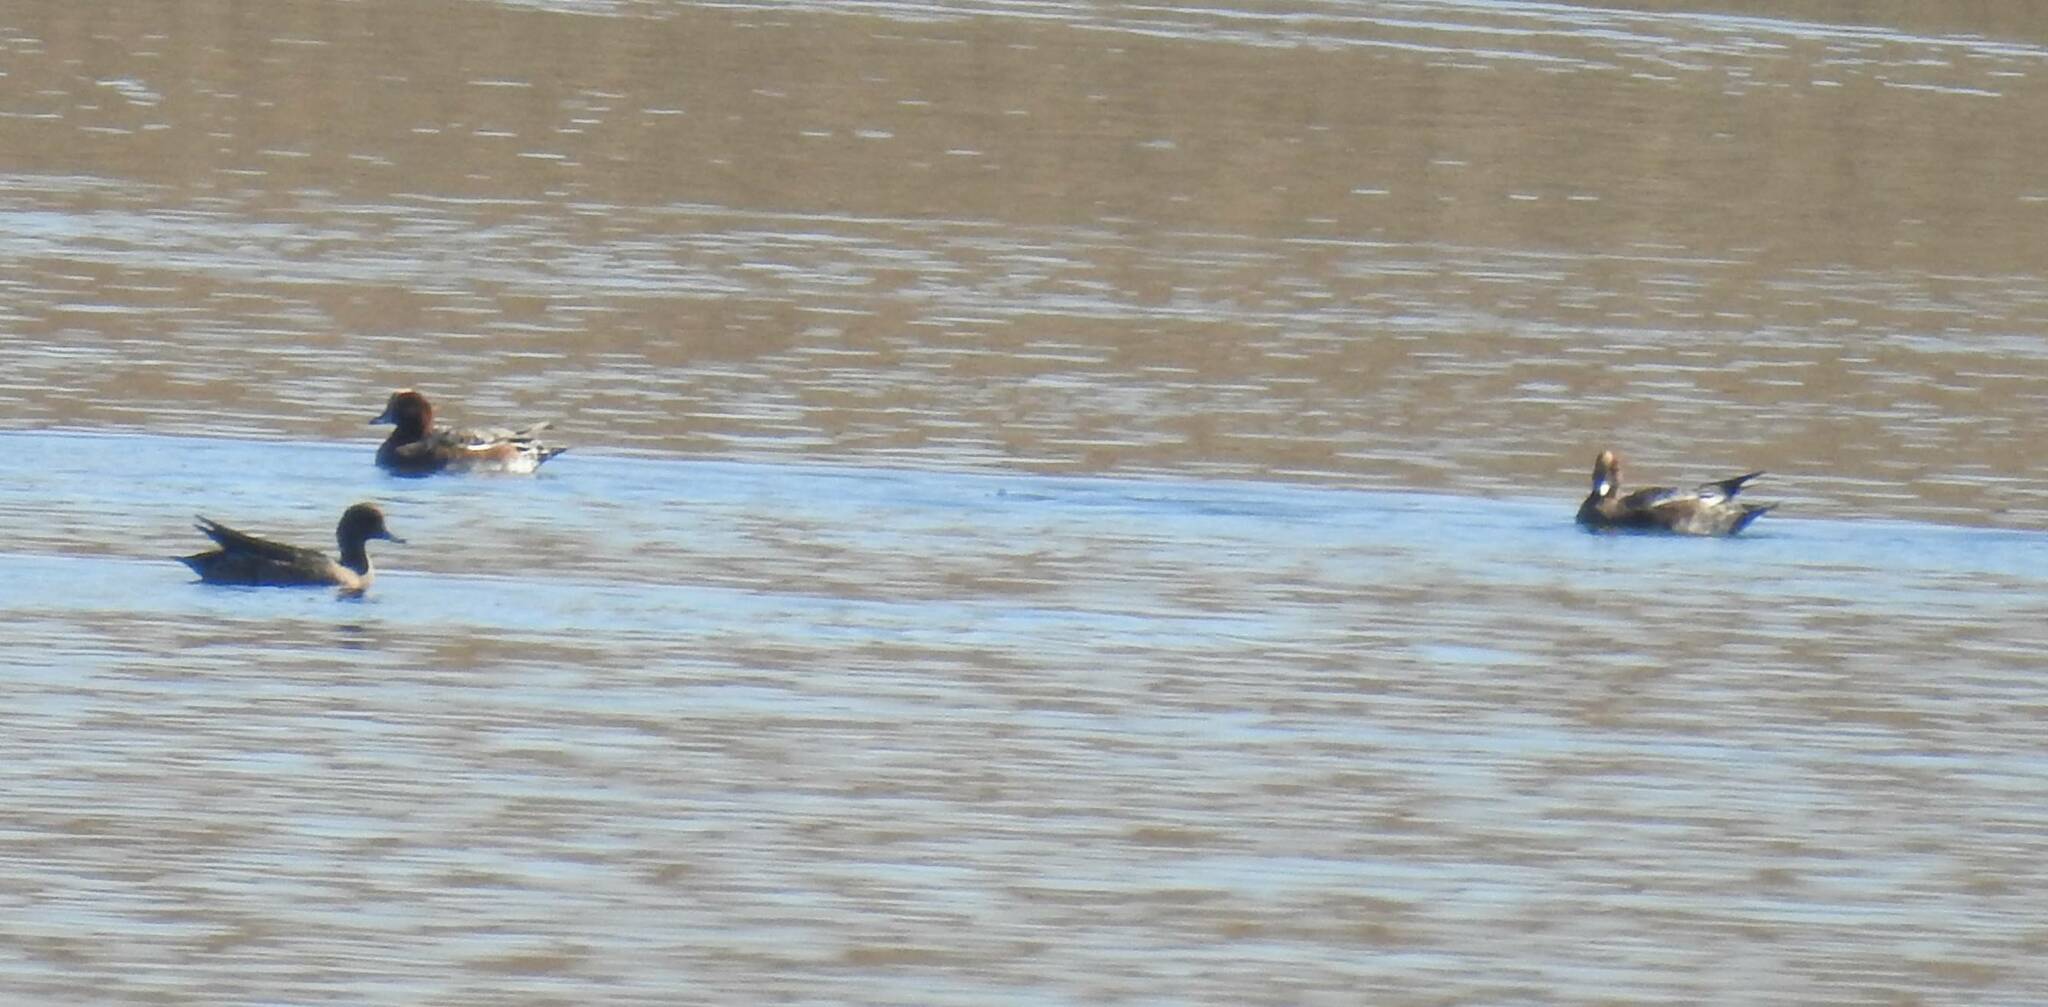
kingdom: Animalia
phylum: Chordata
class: Aves
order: Anseriformes
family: Anatidae
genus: Mareca
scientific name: Mareca penelope
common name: Eurasian wigeon
